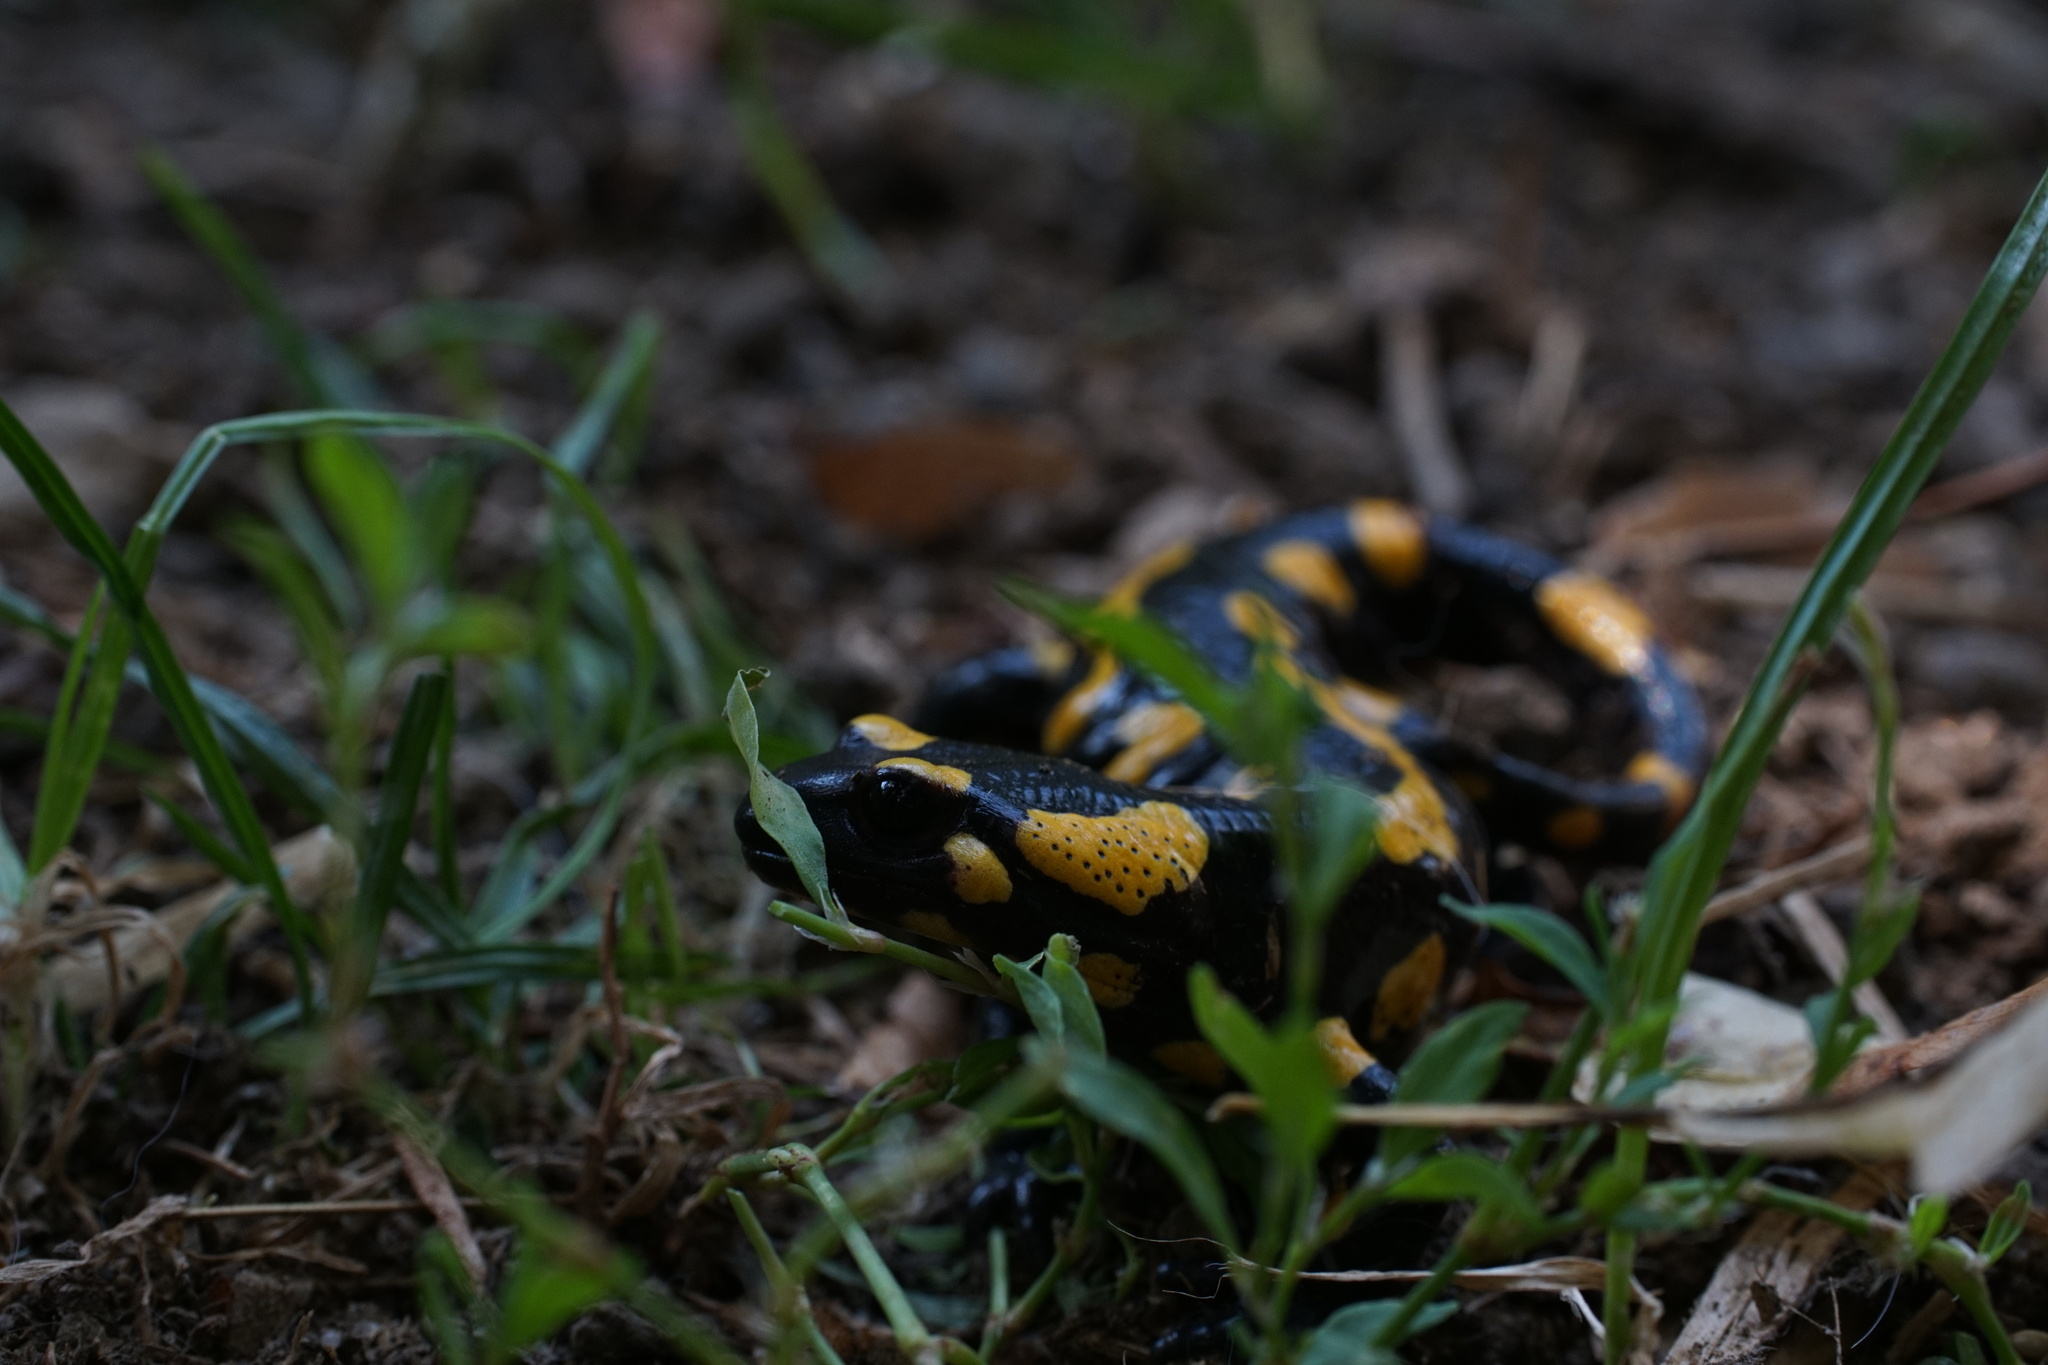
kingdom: Animalia
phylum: Chordata
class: Amphibia
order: Caudata
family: Salamandridae
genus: Salamandra
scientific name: Salamandra salamandra
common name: Fire salamander
